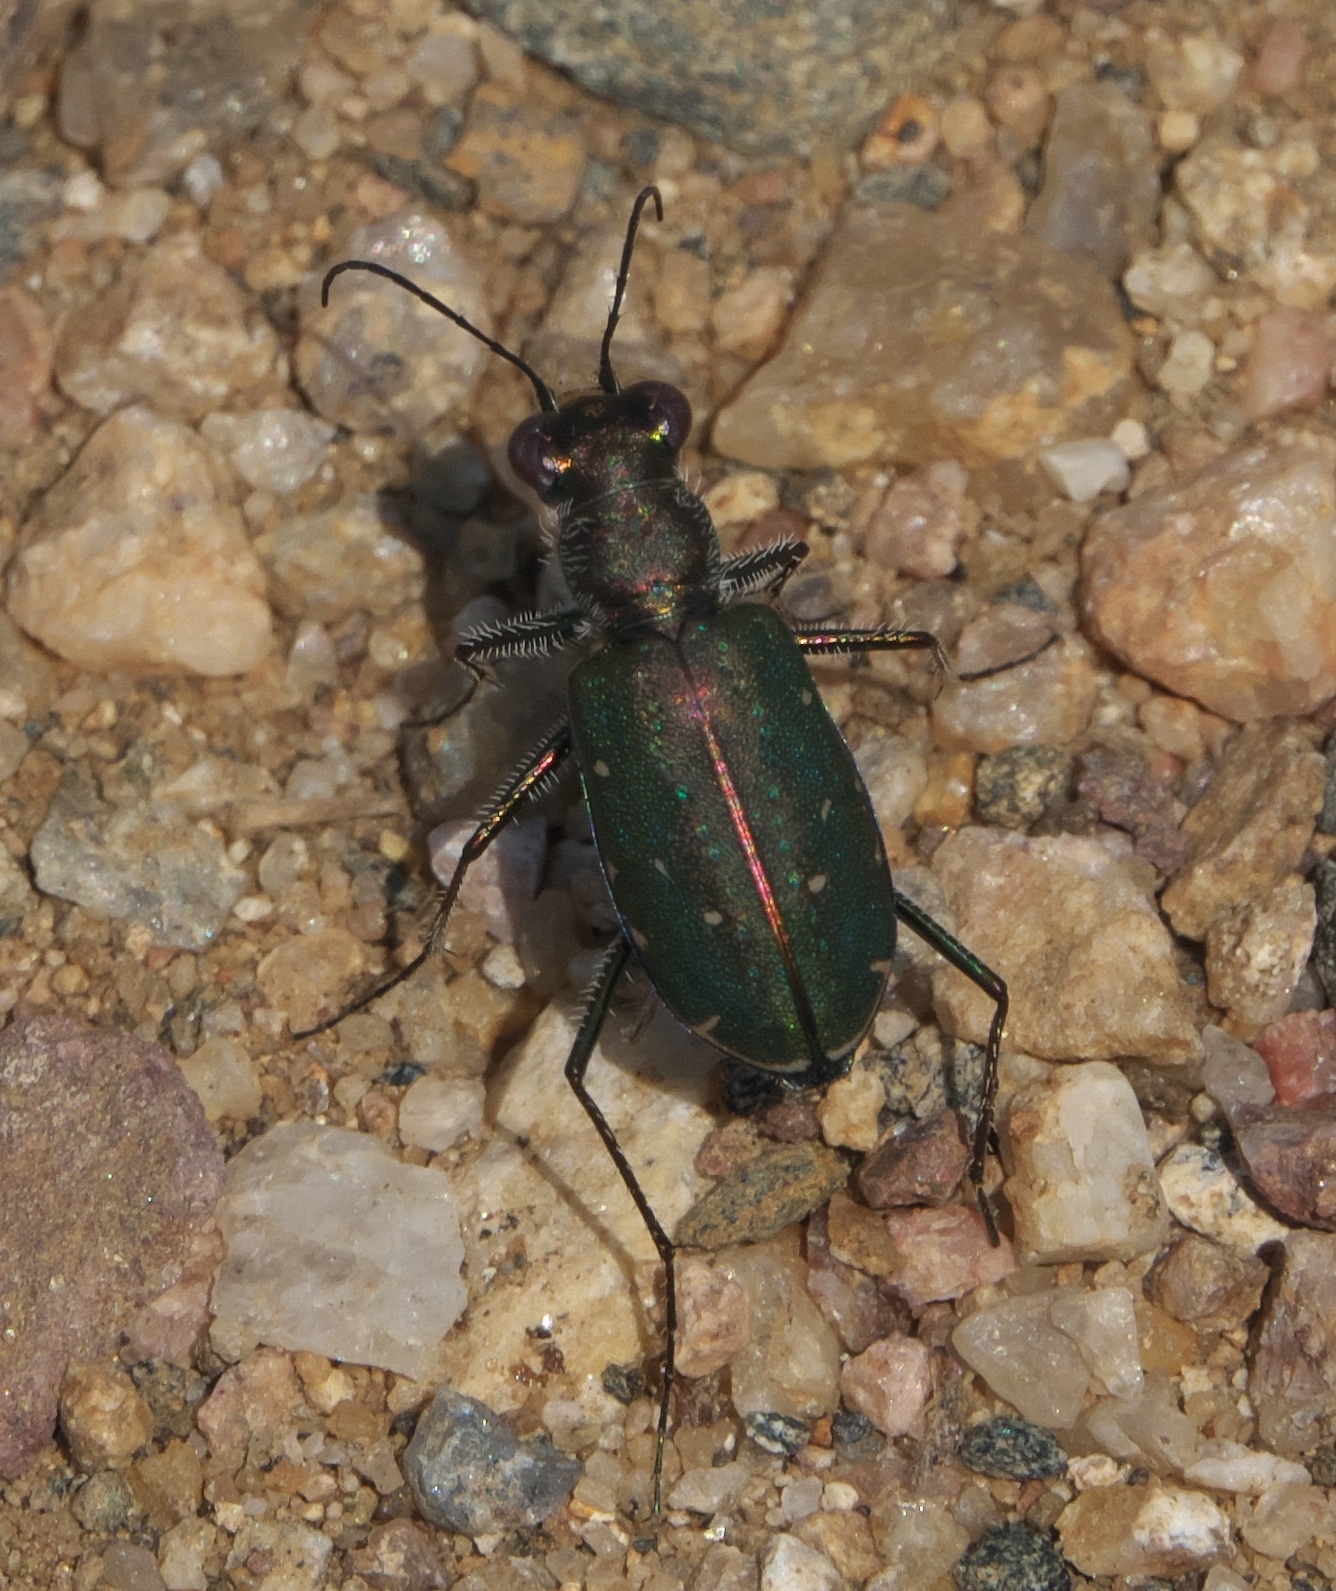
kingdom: Animalia
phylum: Arthropoda
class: Insecta
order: Coleoptera
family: Carabidae
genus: Cicindela
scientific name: Cicindela punctulata
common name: Punctured tiger beetle
